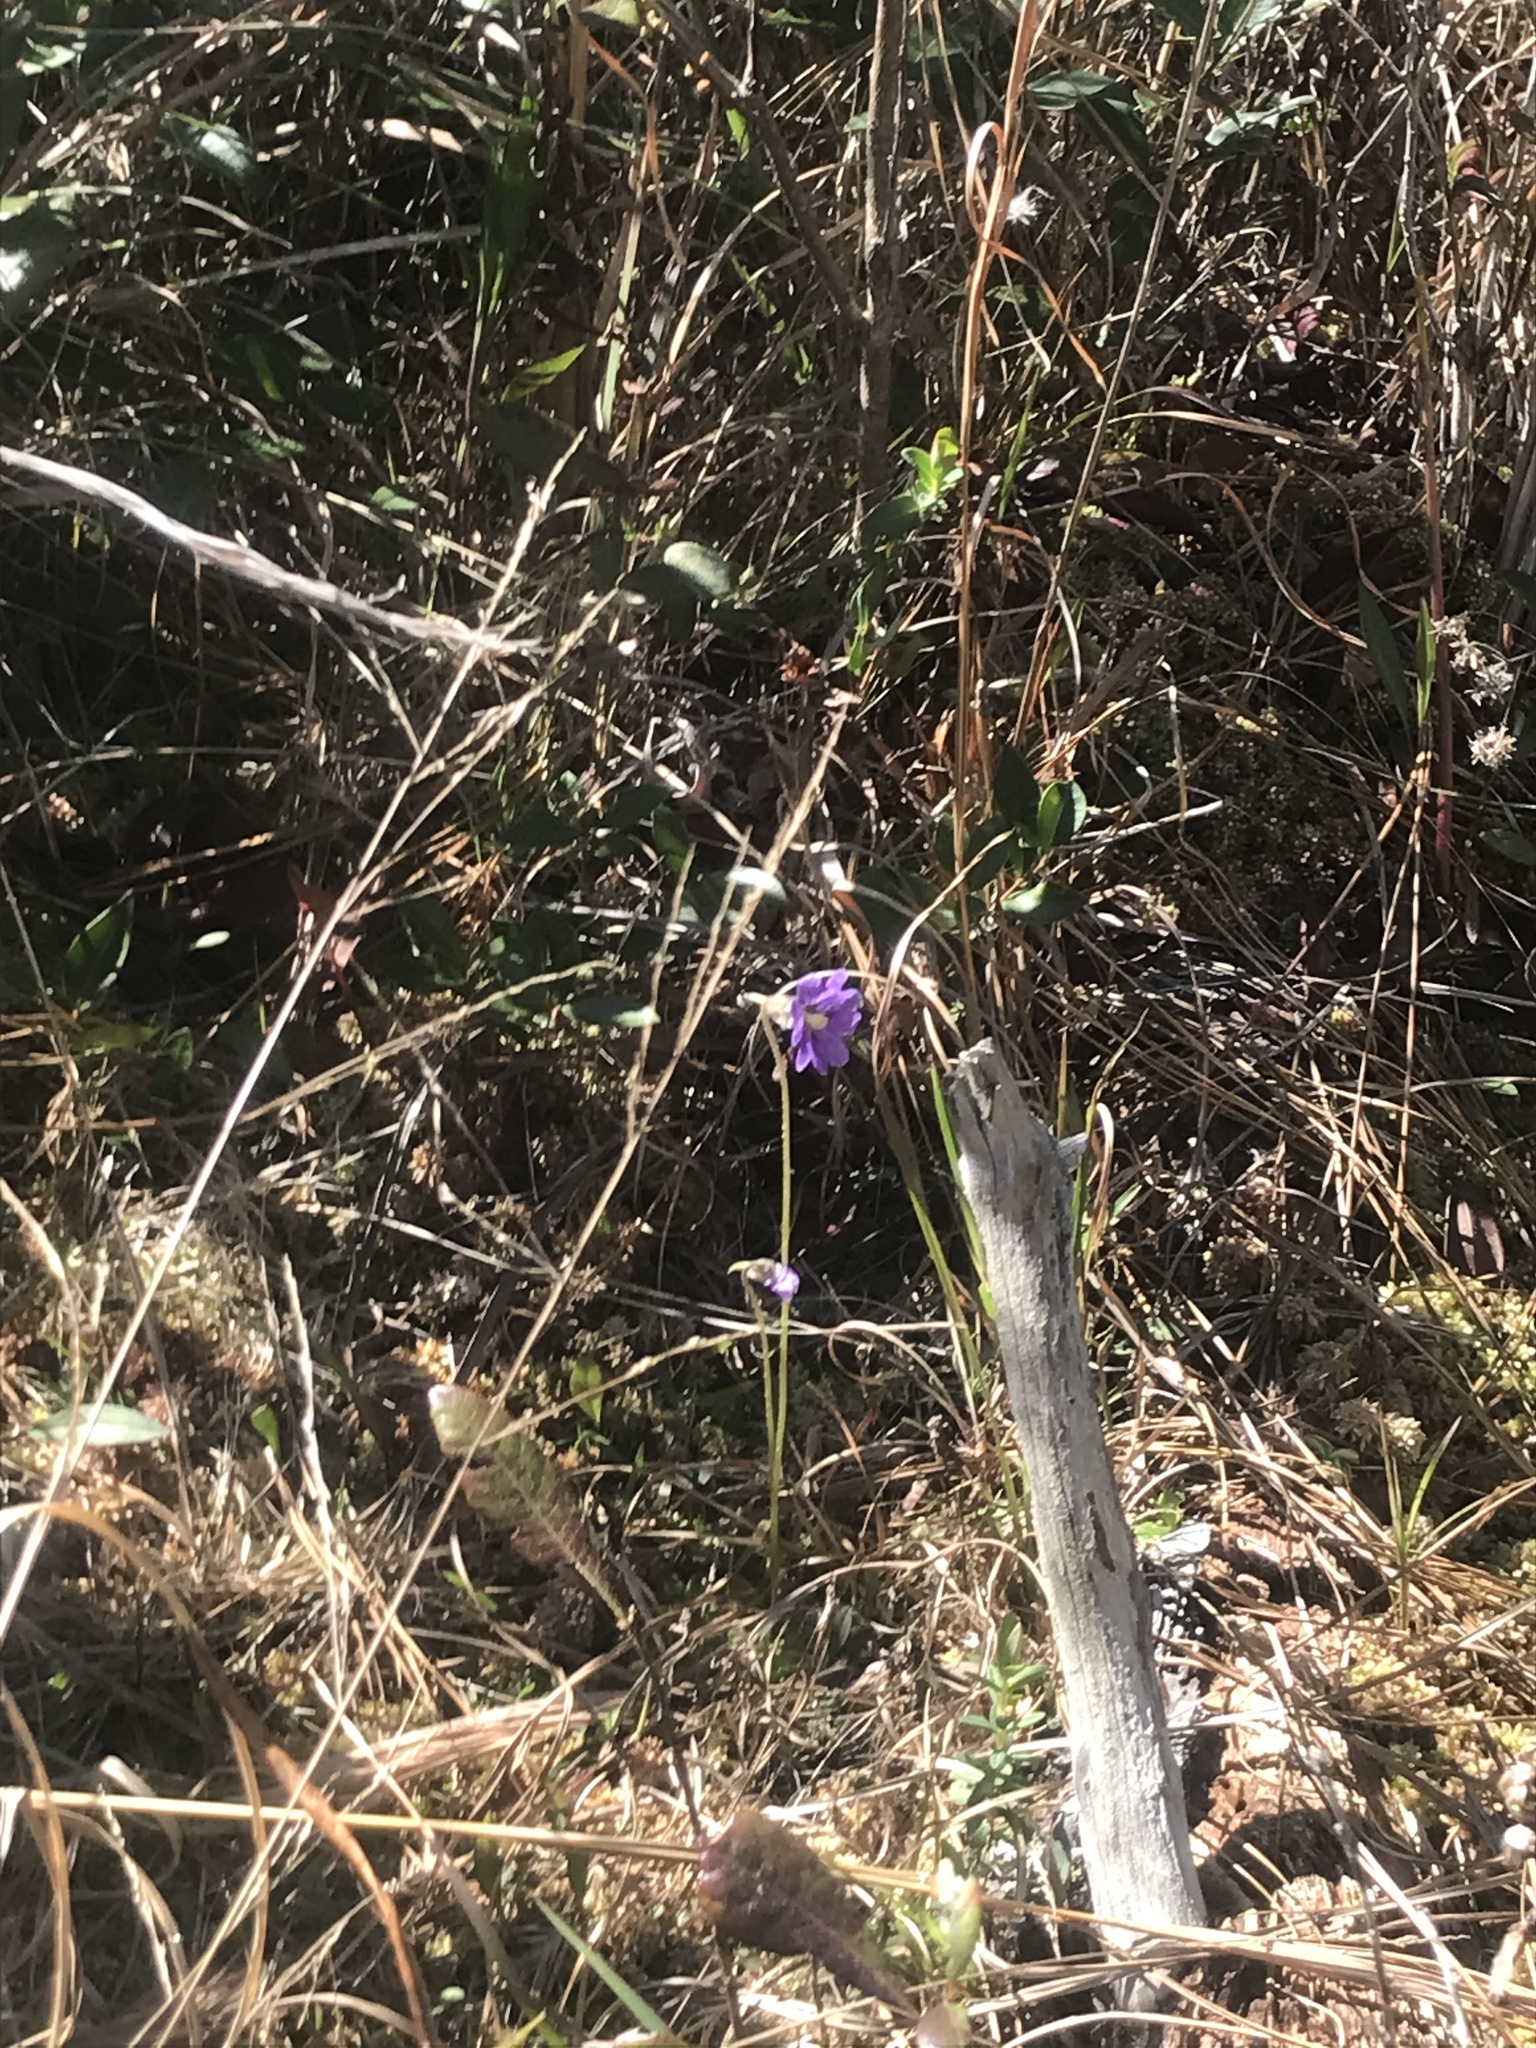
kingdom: Plantae
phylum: Tracheophyta
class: Magnoliopsida
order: Lamiales
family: Lentibulariaceae
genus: Pinguicula
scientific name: Pinguicula caerulea
